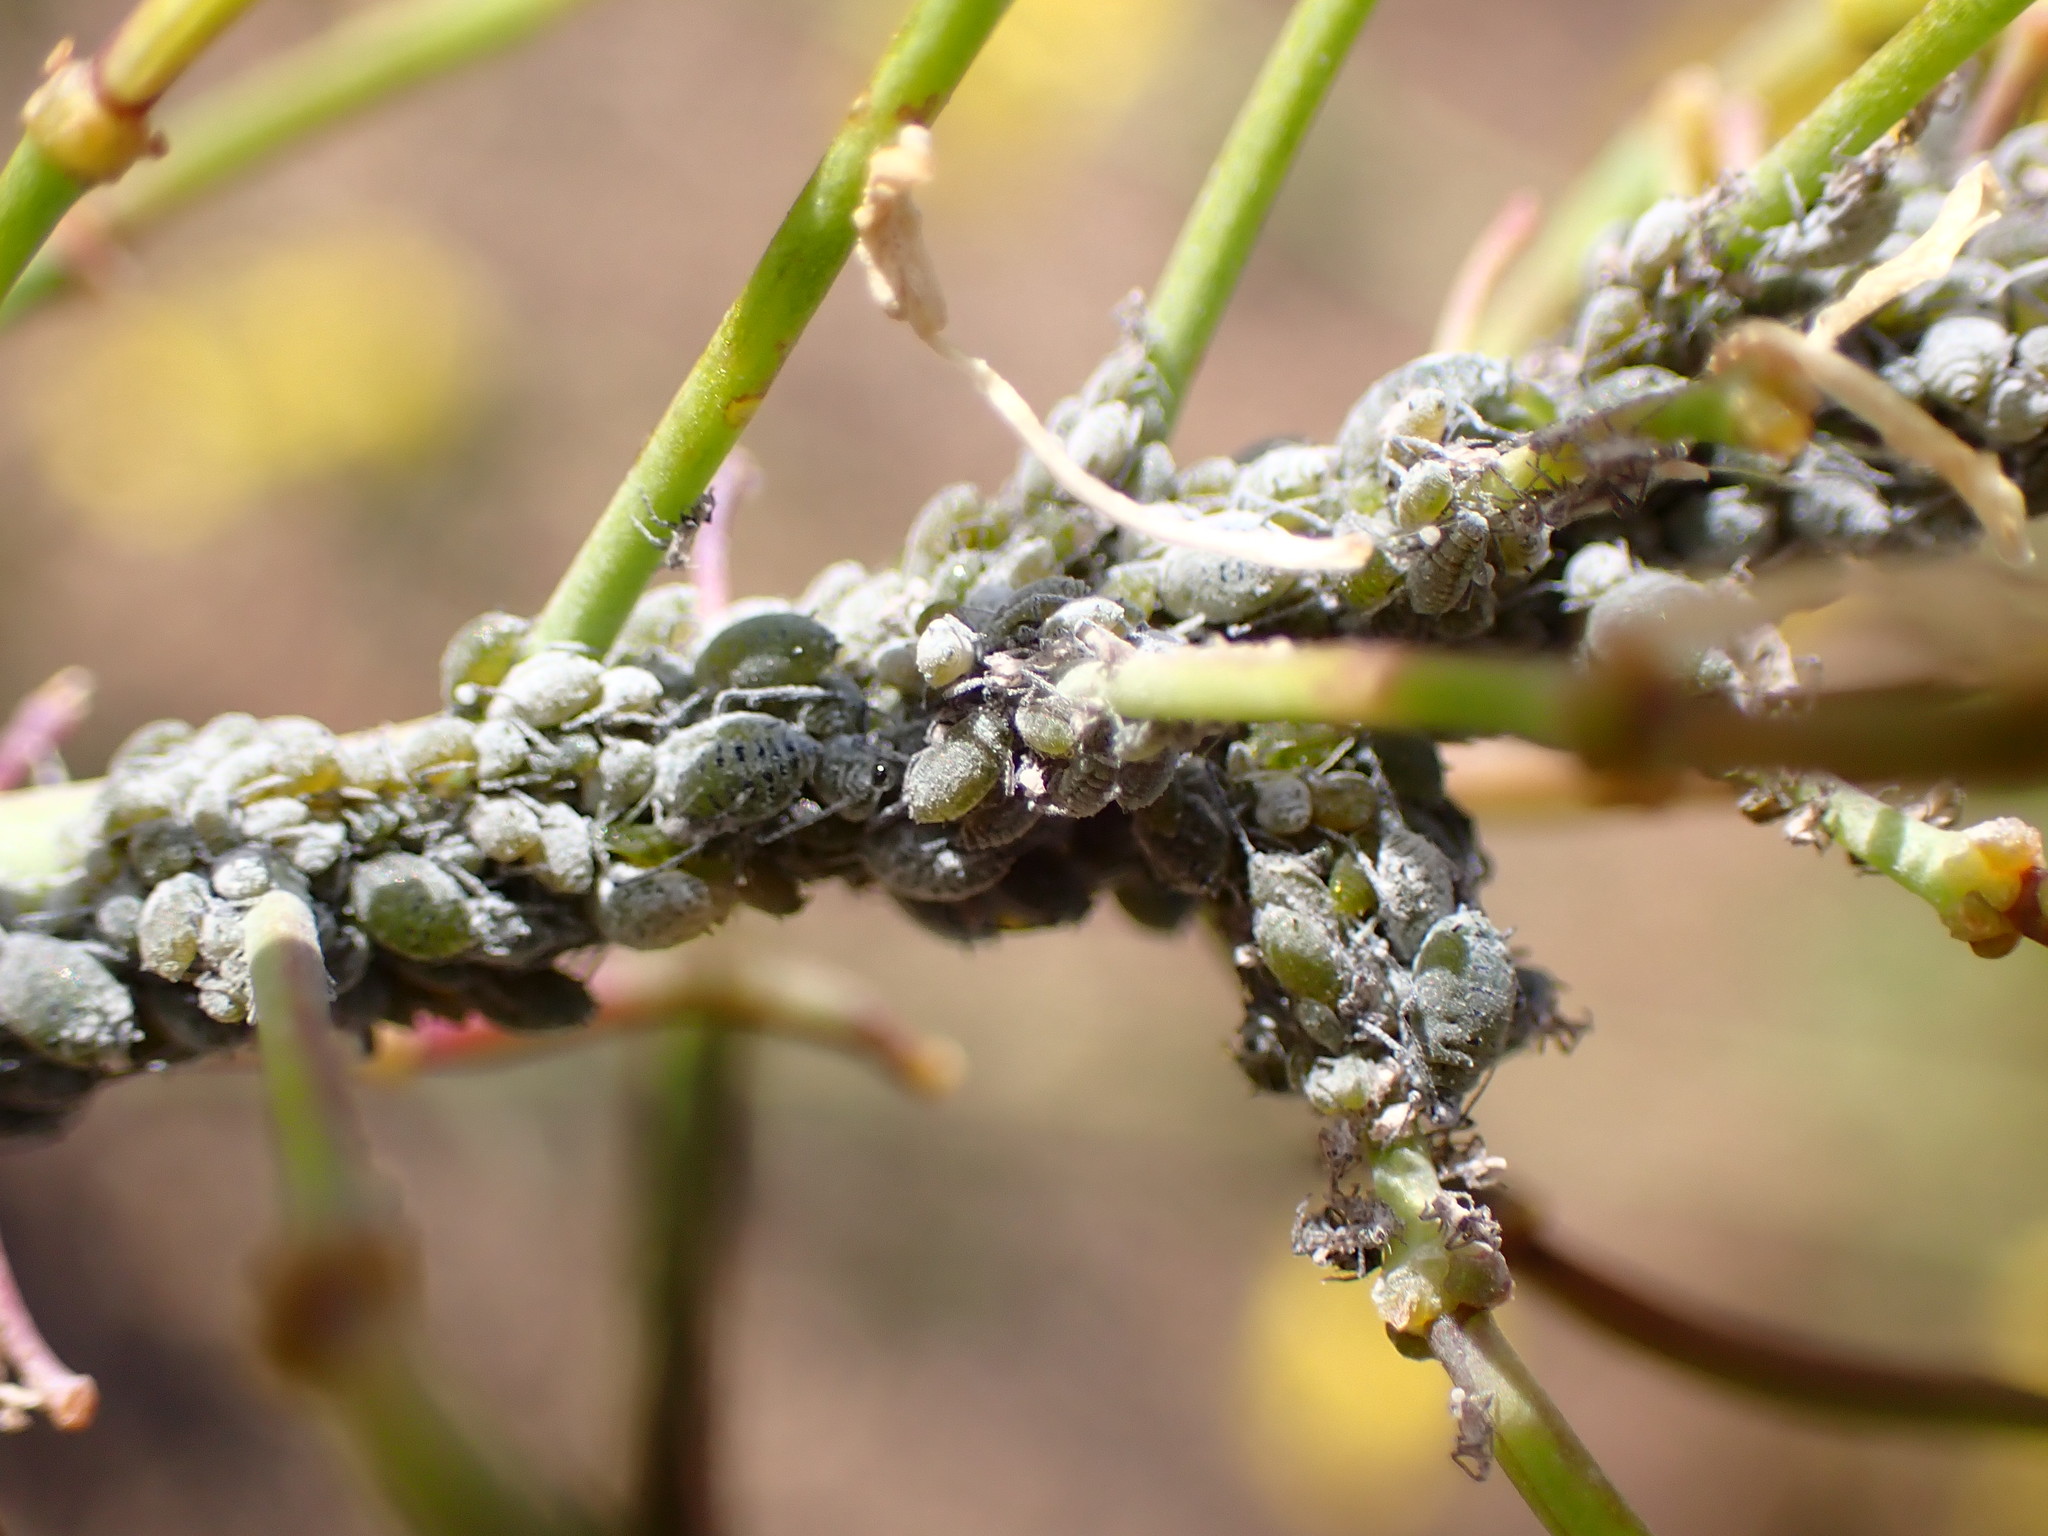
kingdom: Animalia
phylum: Arthropoda
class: Insecta
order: Hemiptera
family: Aphididae
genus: Brevicoryne
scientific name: Brevicoryne brassicae
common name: Cabbage aphid
